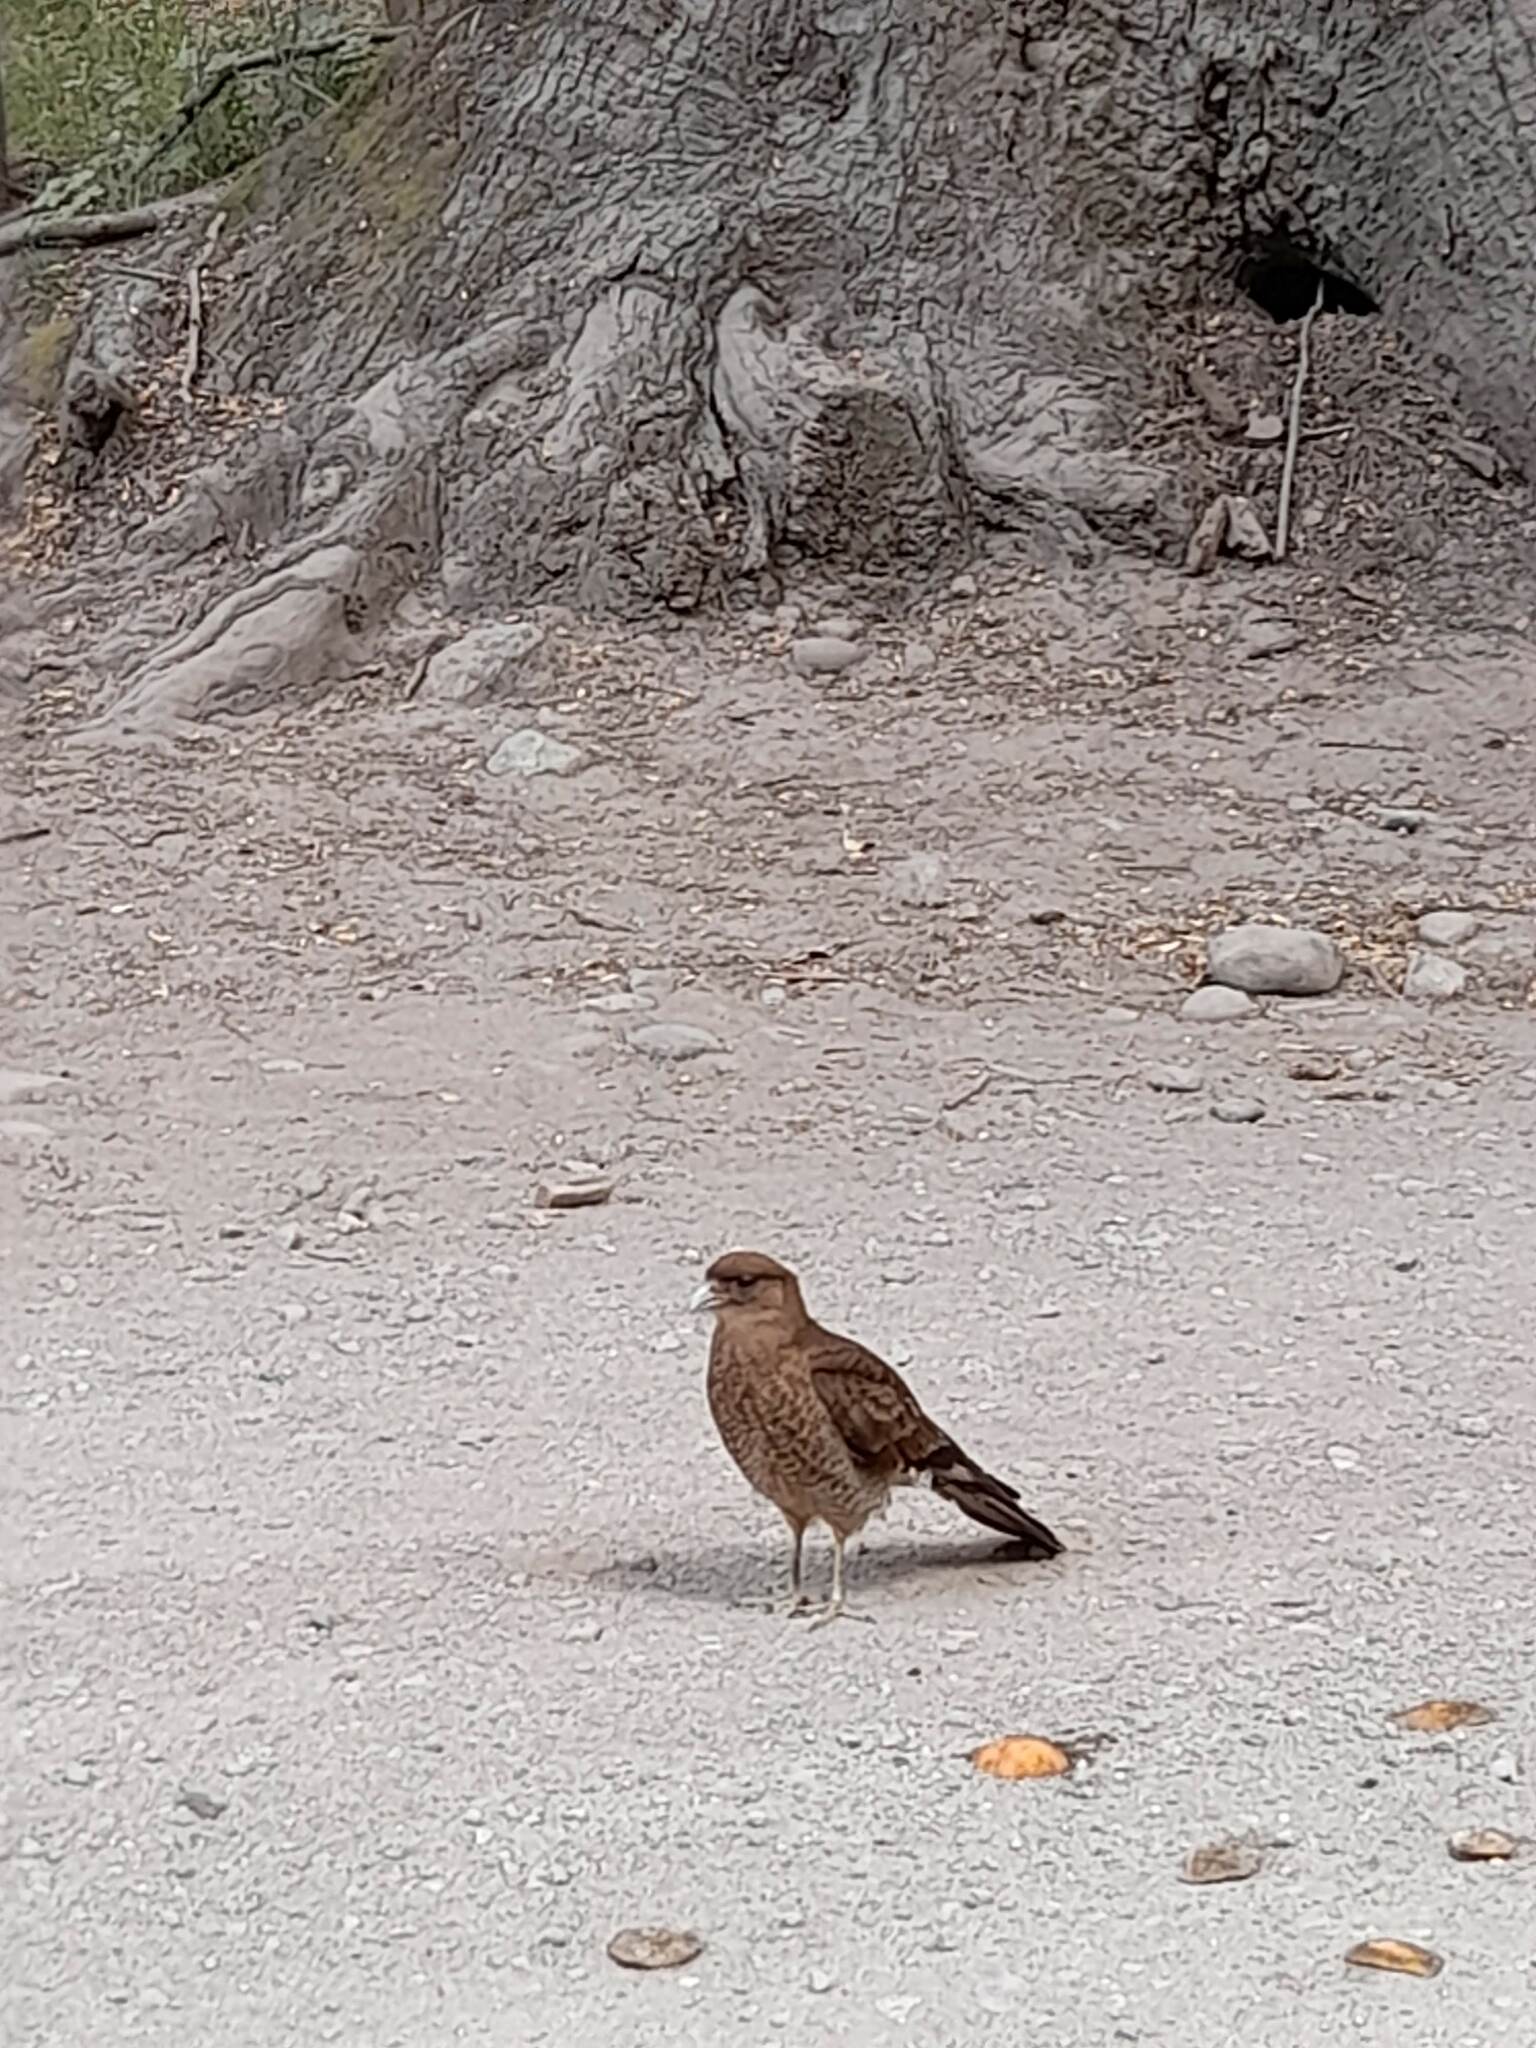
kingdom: Animalia
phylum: Chordata
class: Aves
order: Falconiformes
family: Falconidae
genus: Daptrius
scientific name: Daptrius
